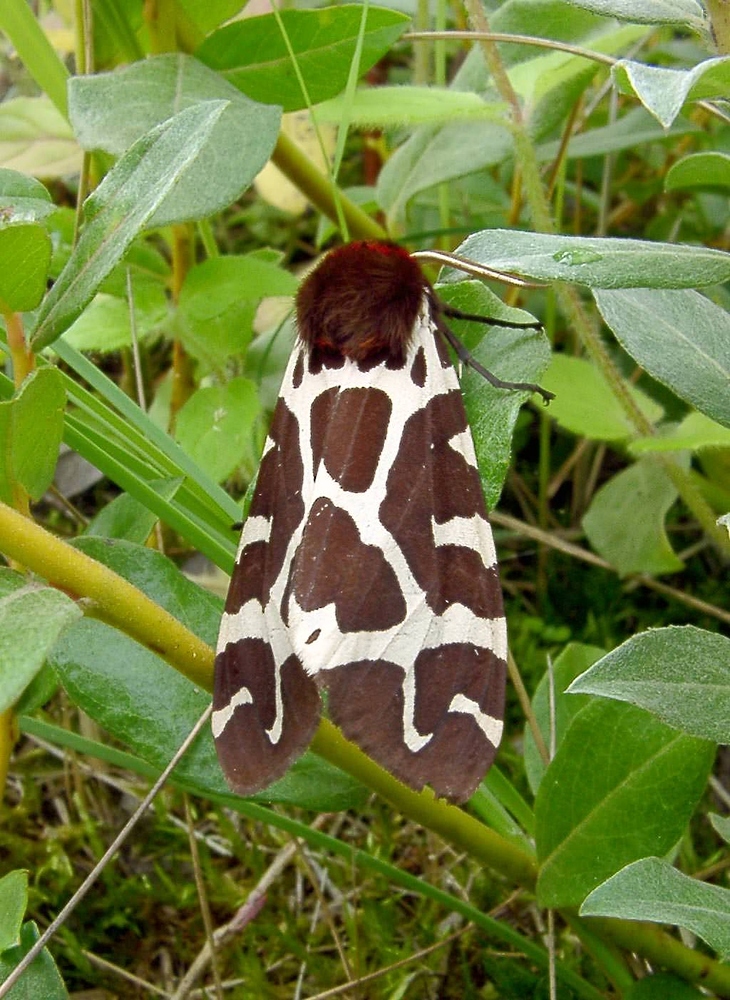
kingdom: Animalia
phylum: Arthropoda
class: Insecta
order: Lepidoptera
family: Erebidae
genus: Arctia
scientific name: Arctia caja
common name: Garden tiger
